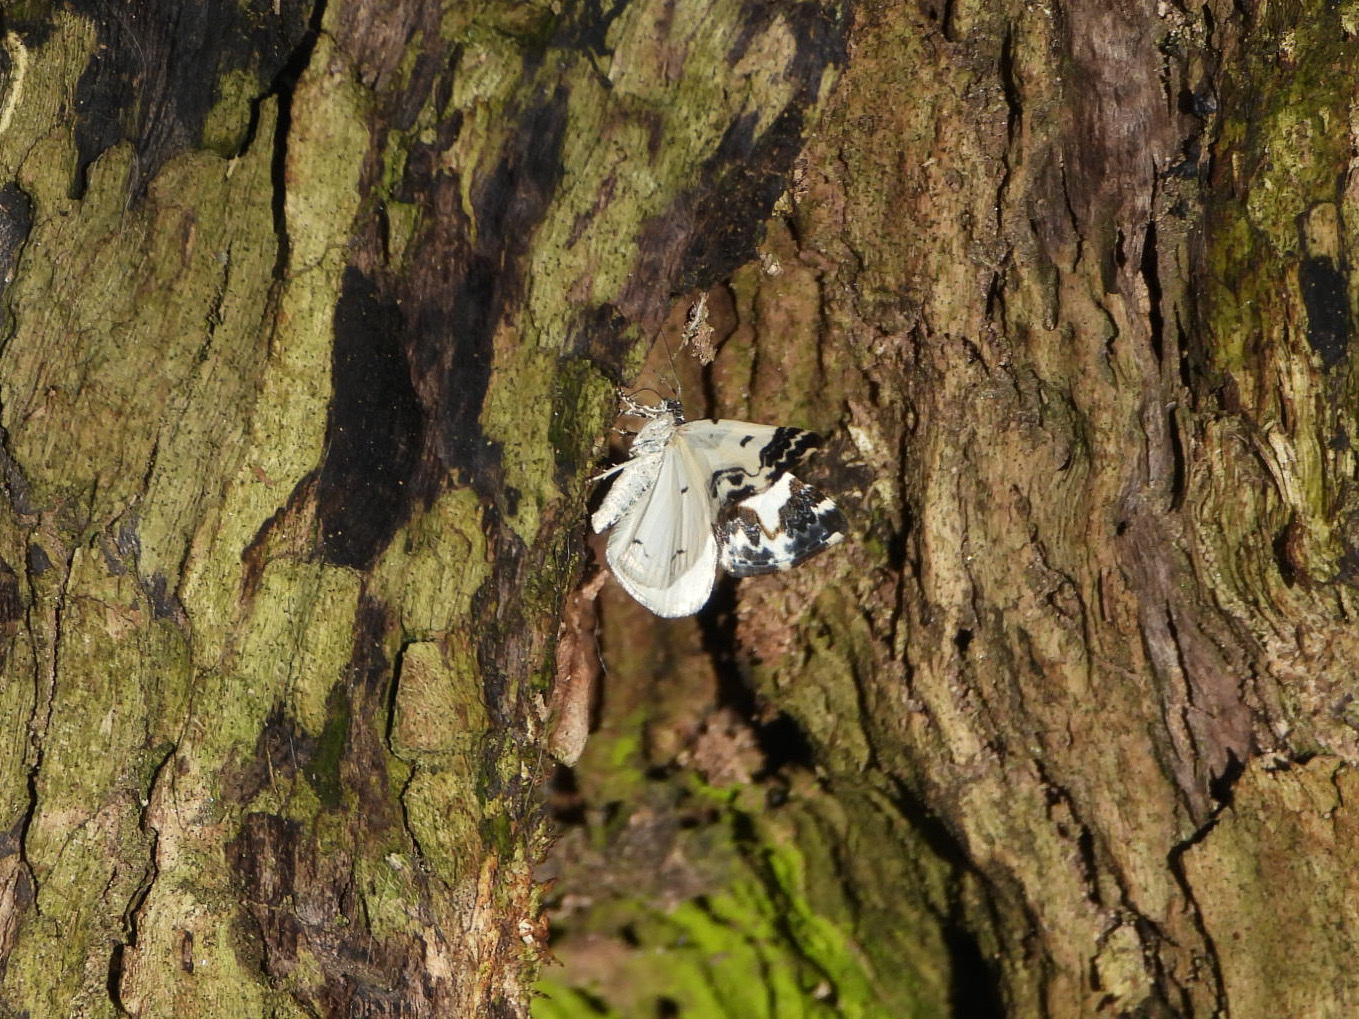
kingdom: Animalia
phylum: Arthropoda
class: Insecta
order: Lepidoptera
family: Geometridae
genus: Mesoleuca
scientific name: Mesoleuca gratulata
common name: Half-white carpet moth
